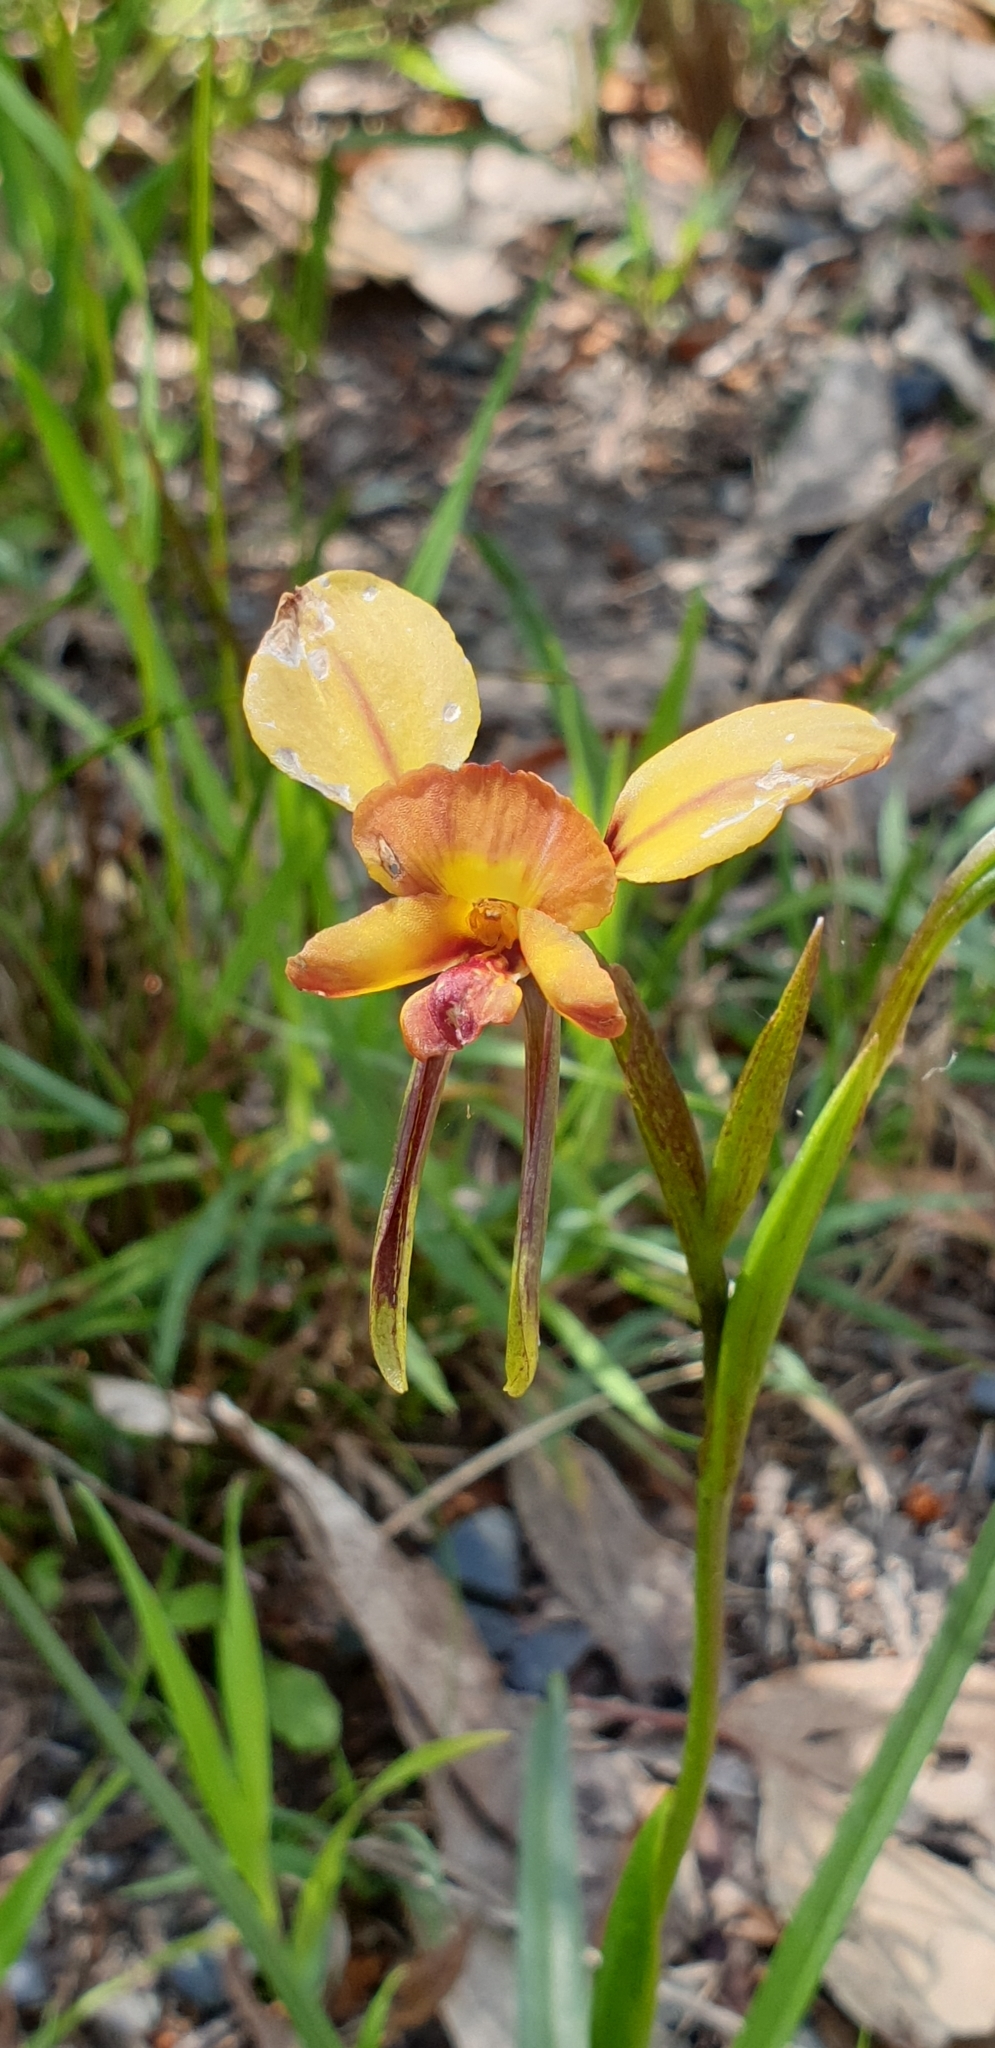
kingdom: Plantae
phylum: Tracheophyta
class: Liliopsida
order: Asparagales
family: Orchidaceae
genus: Diuris
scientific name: Diuris orientis
